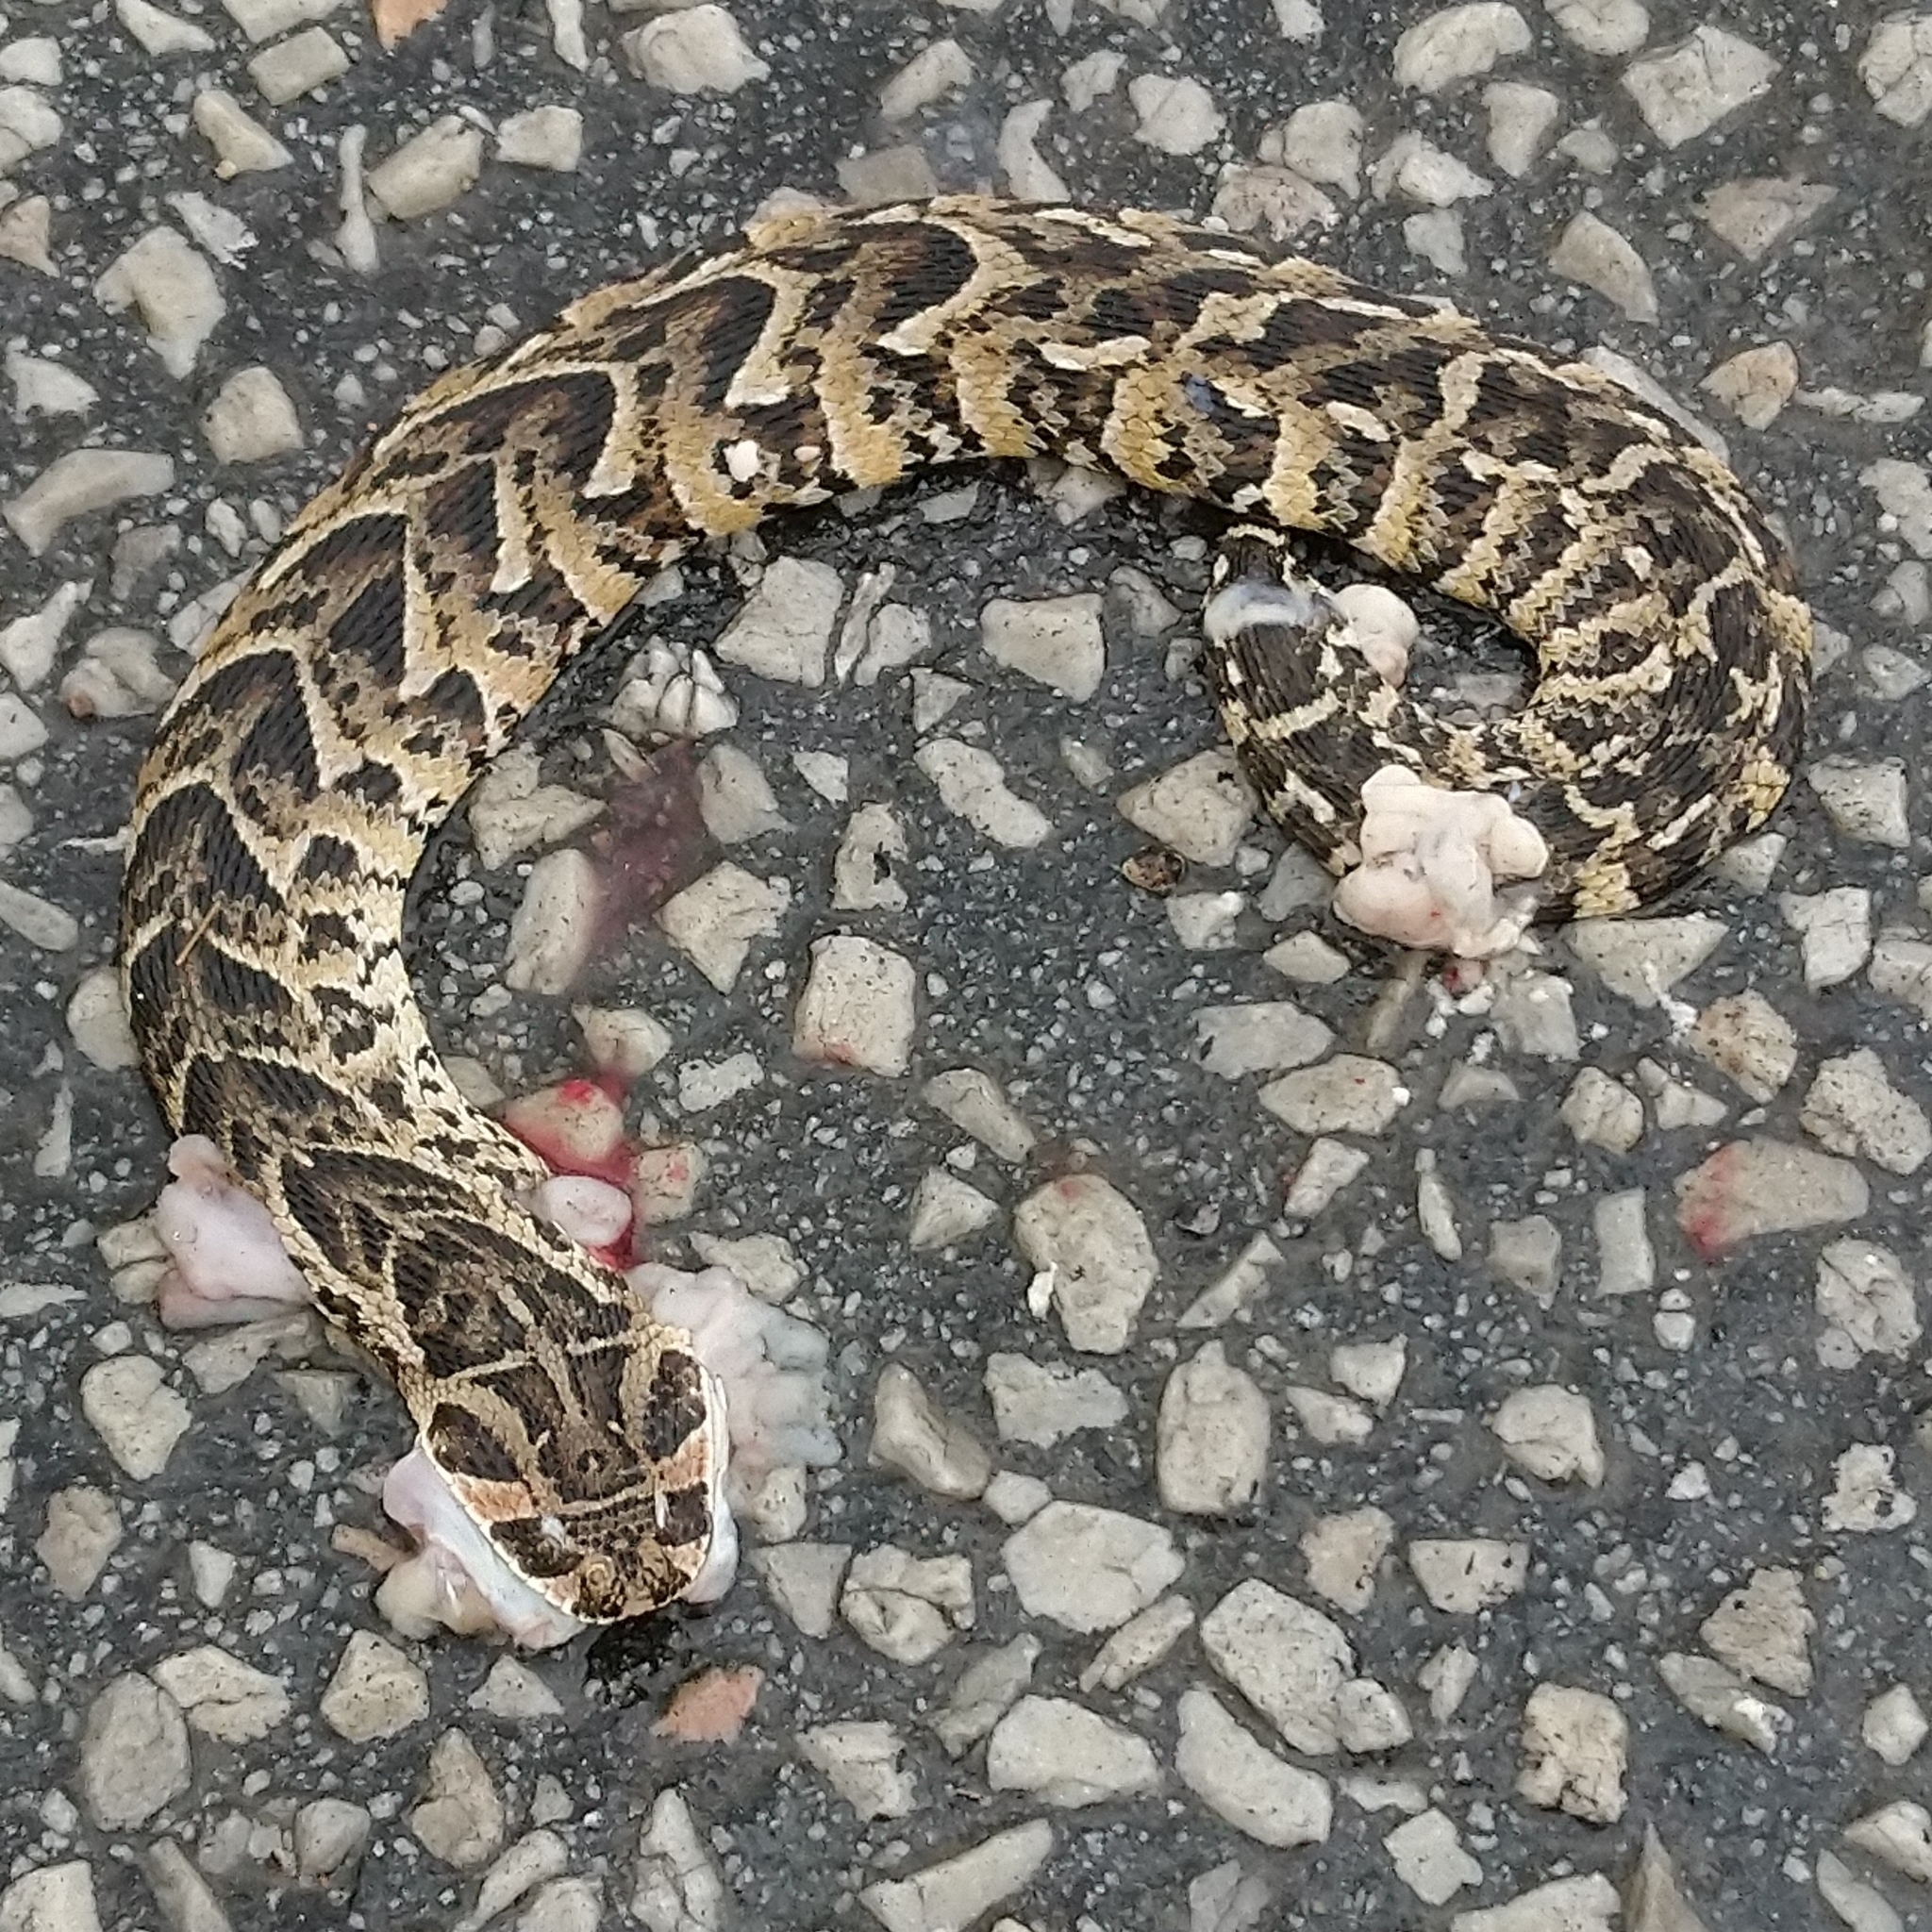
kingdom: Animalia
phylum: Chordata
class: Squamata
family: Viperidae
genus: Bitis
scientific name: Bitis arietans
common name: Puff adder
